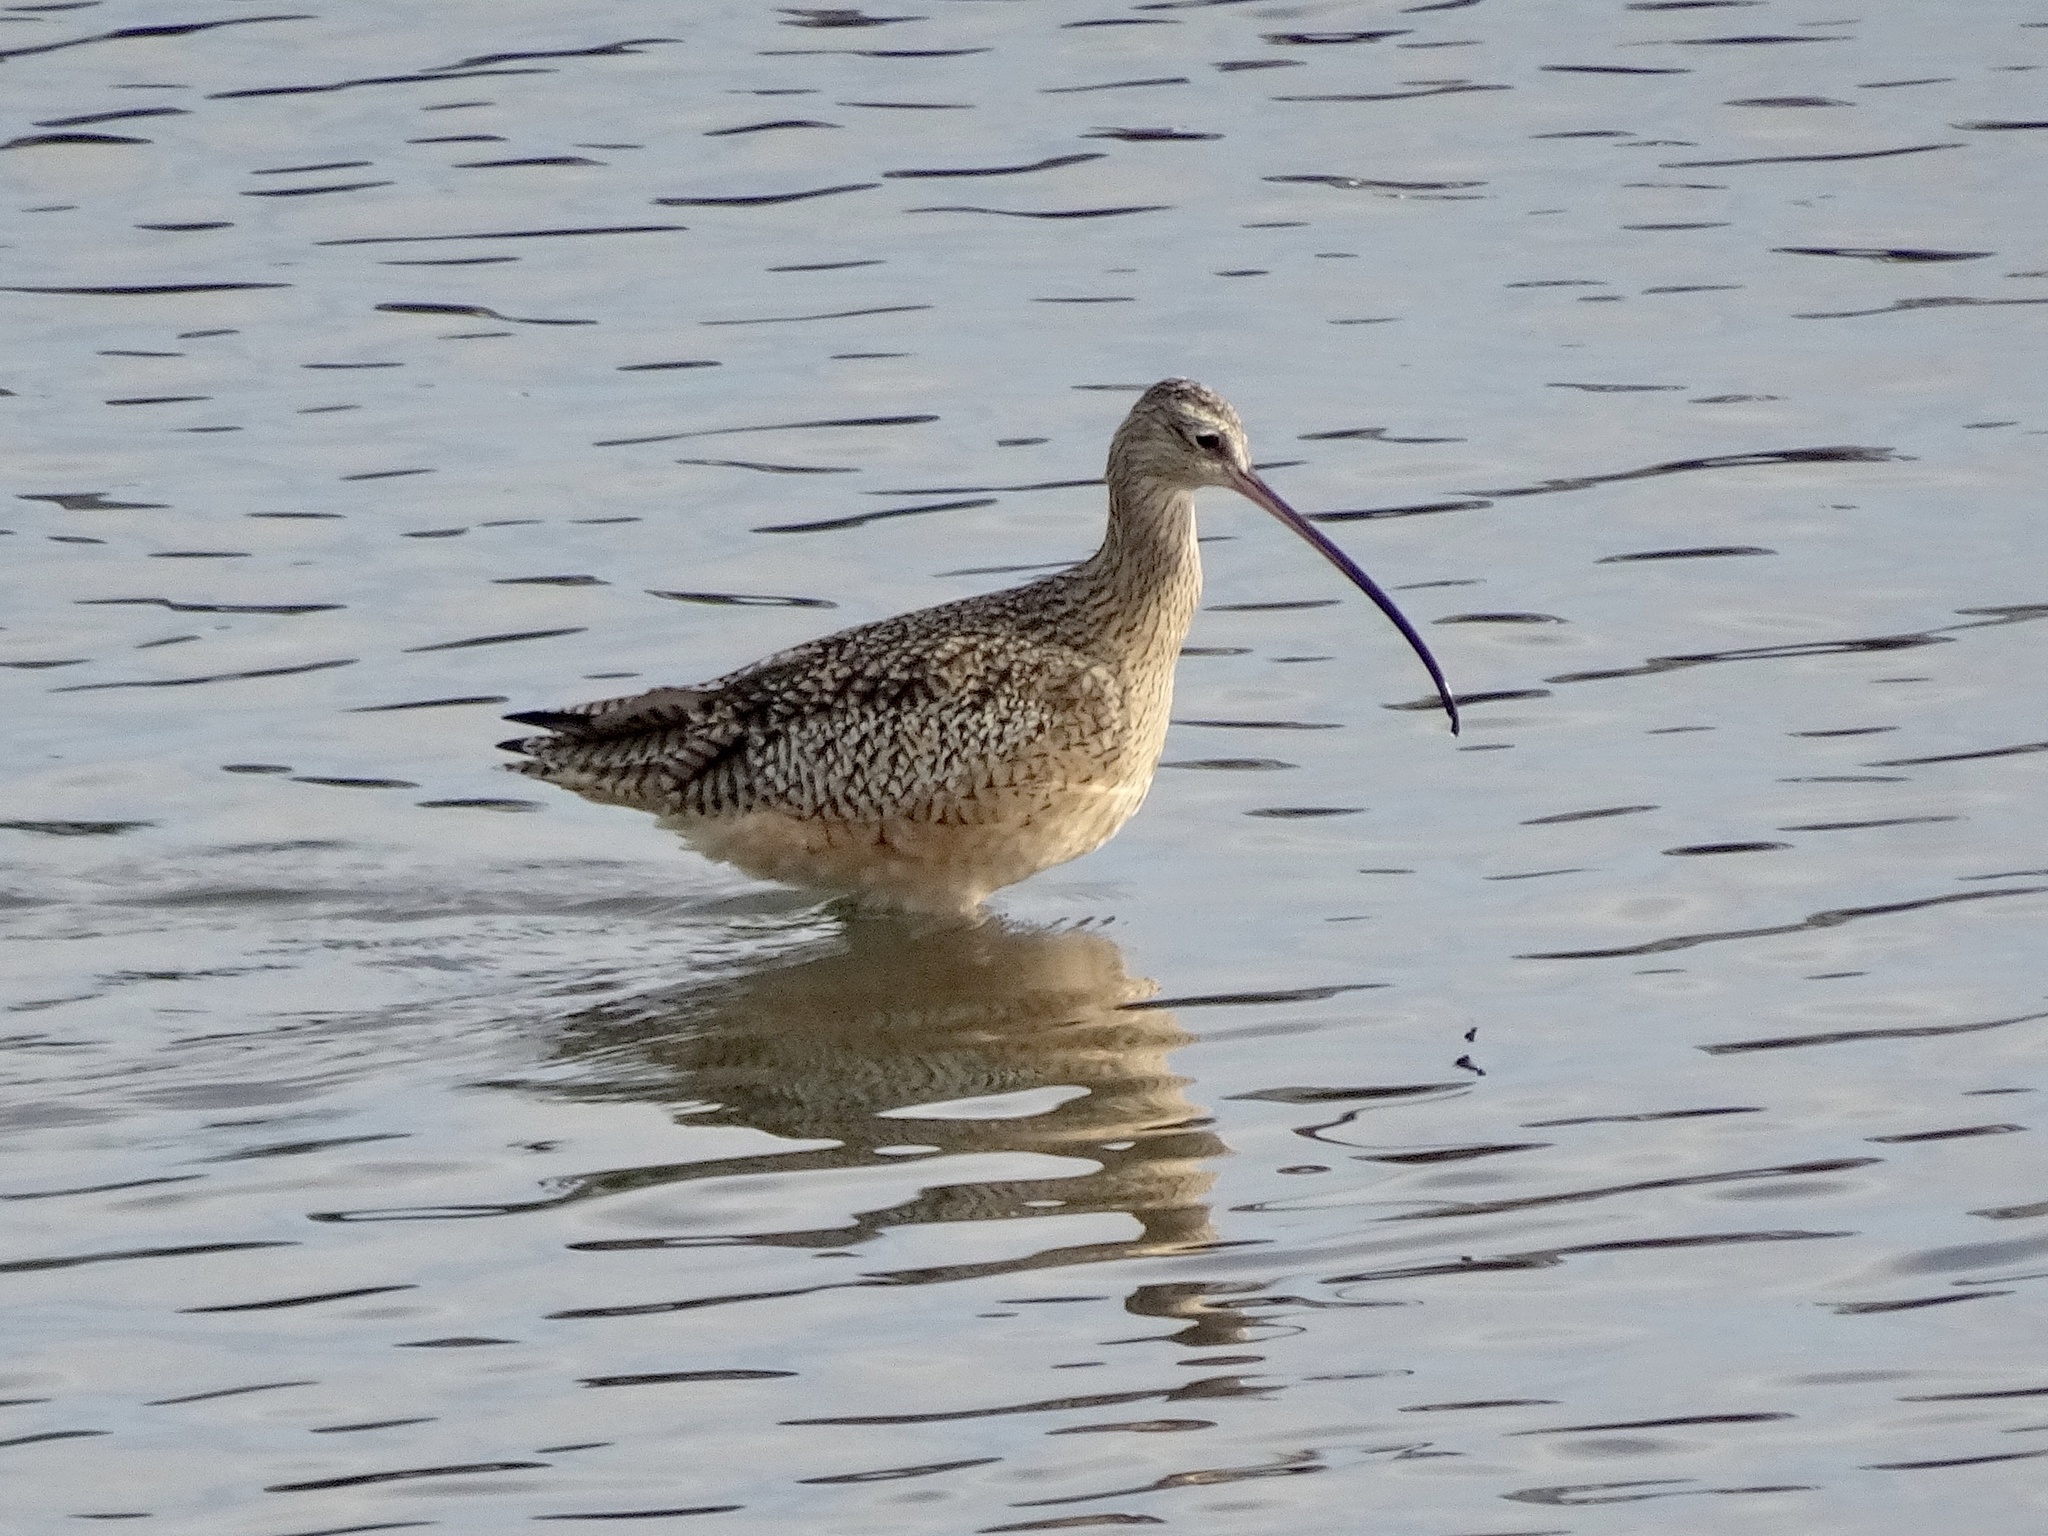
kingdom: Animalia
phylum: Chordata
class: Aves
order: Charadriiformes
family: Scolopacidae
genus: Numenius
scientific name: Numenius americanus
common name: Long-billed curlew
